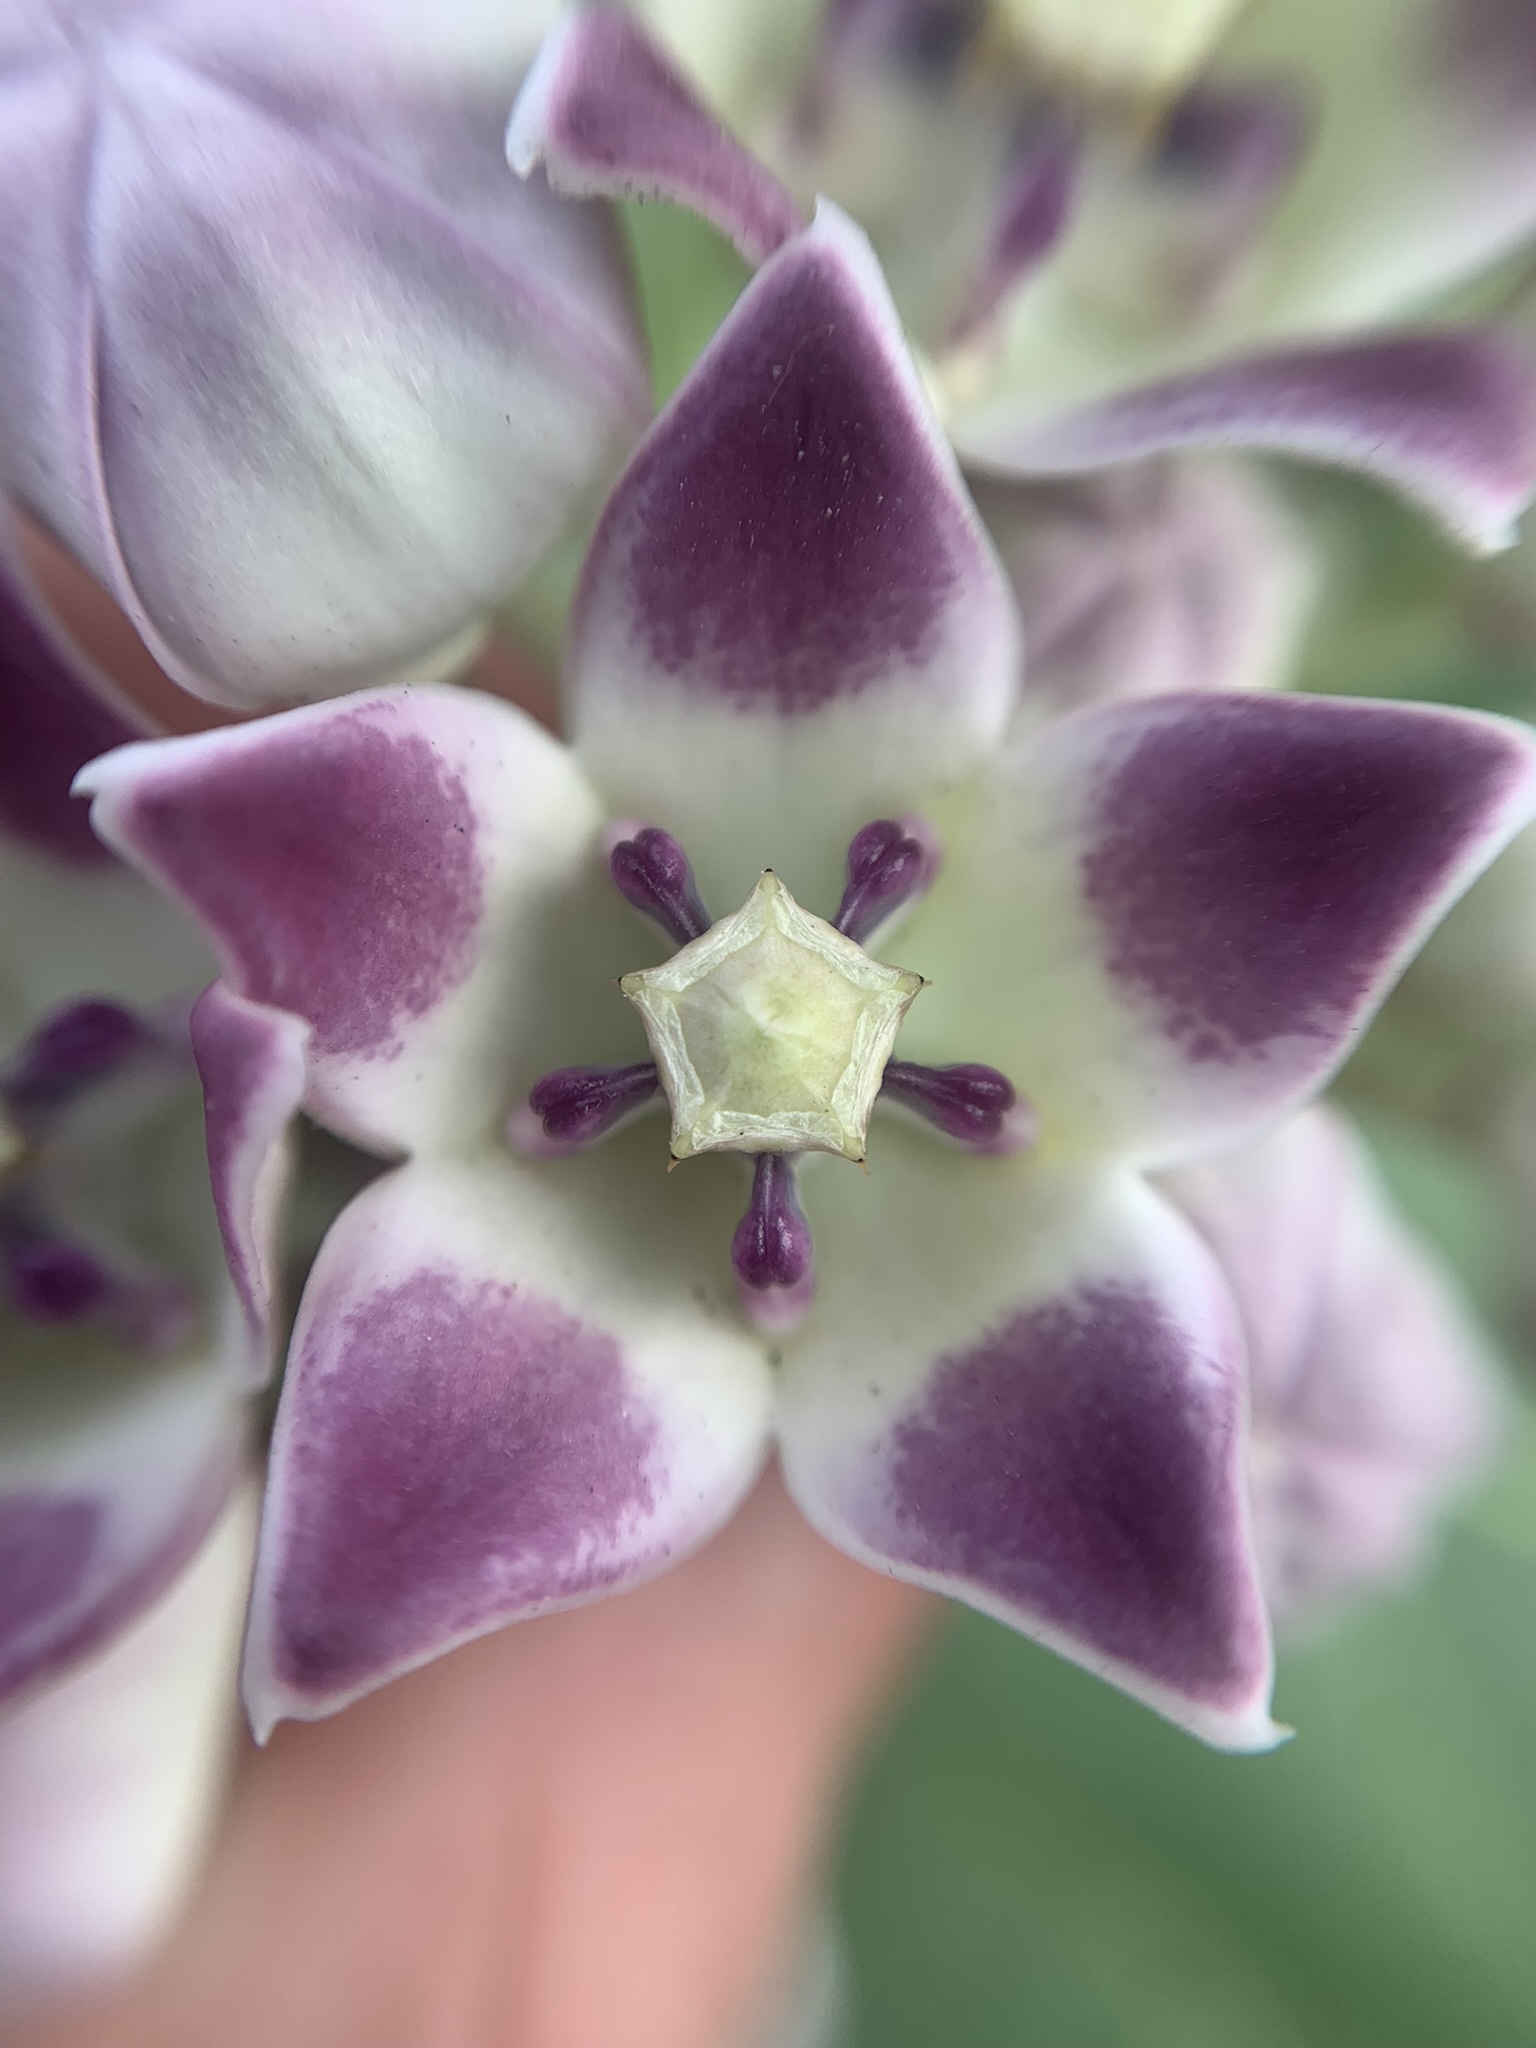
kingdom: Plantae
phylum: Tracheophyta
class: Magnoliopsida
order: Gentianales
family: Apocynaceae
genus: Calotropis
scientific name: Calotropis procera
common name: Roostertree
